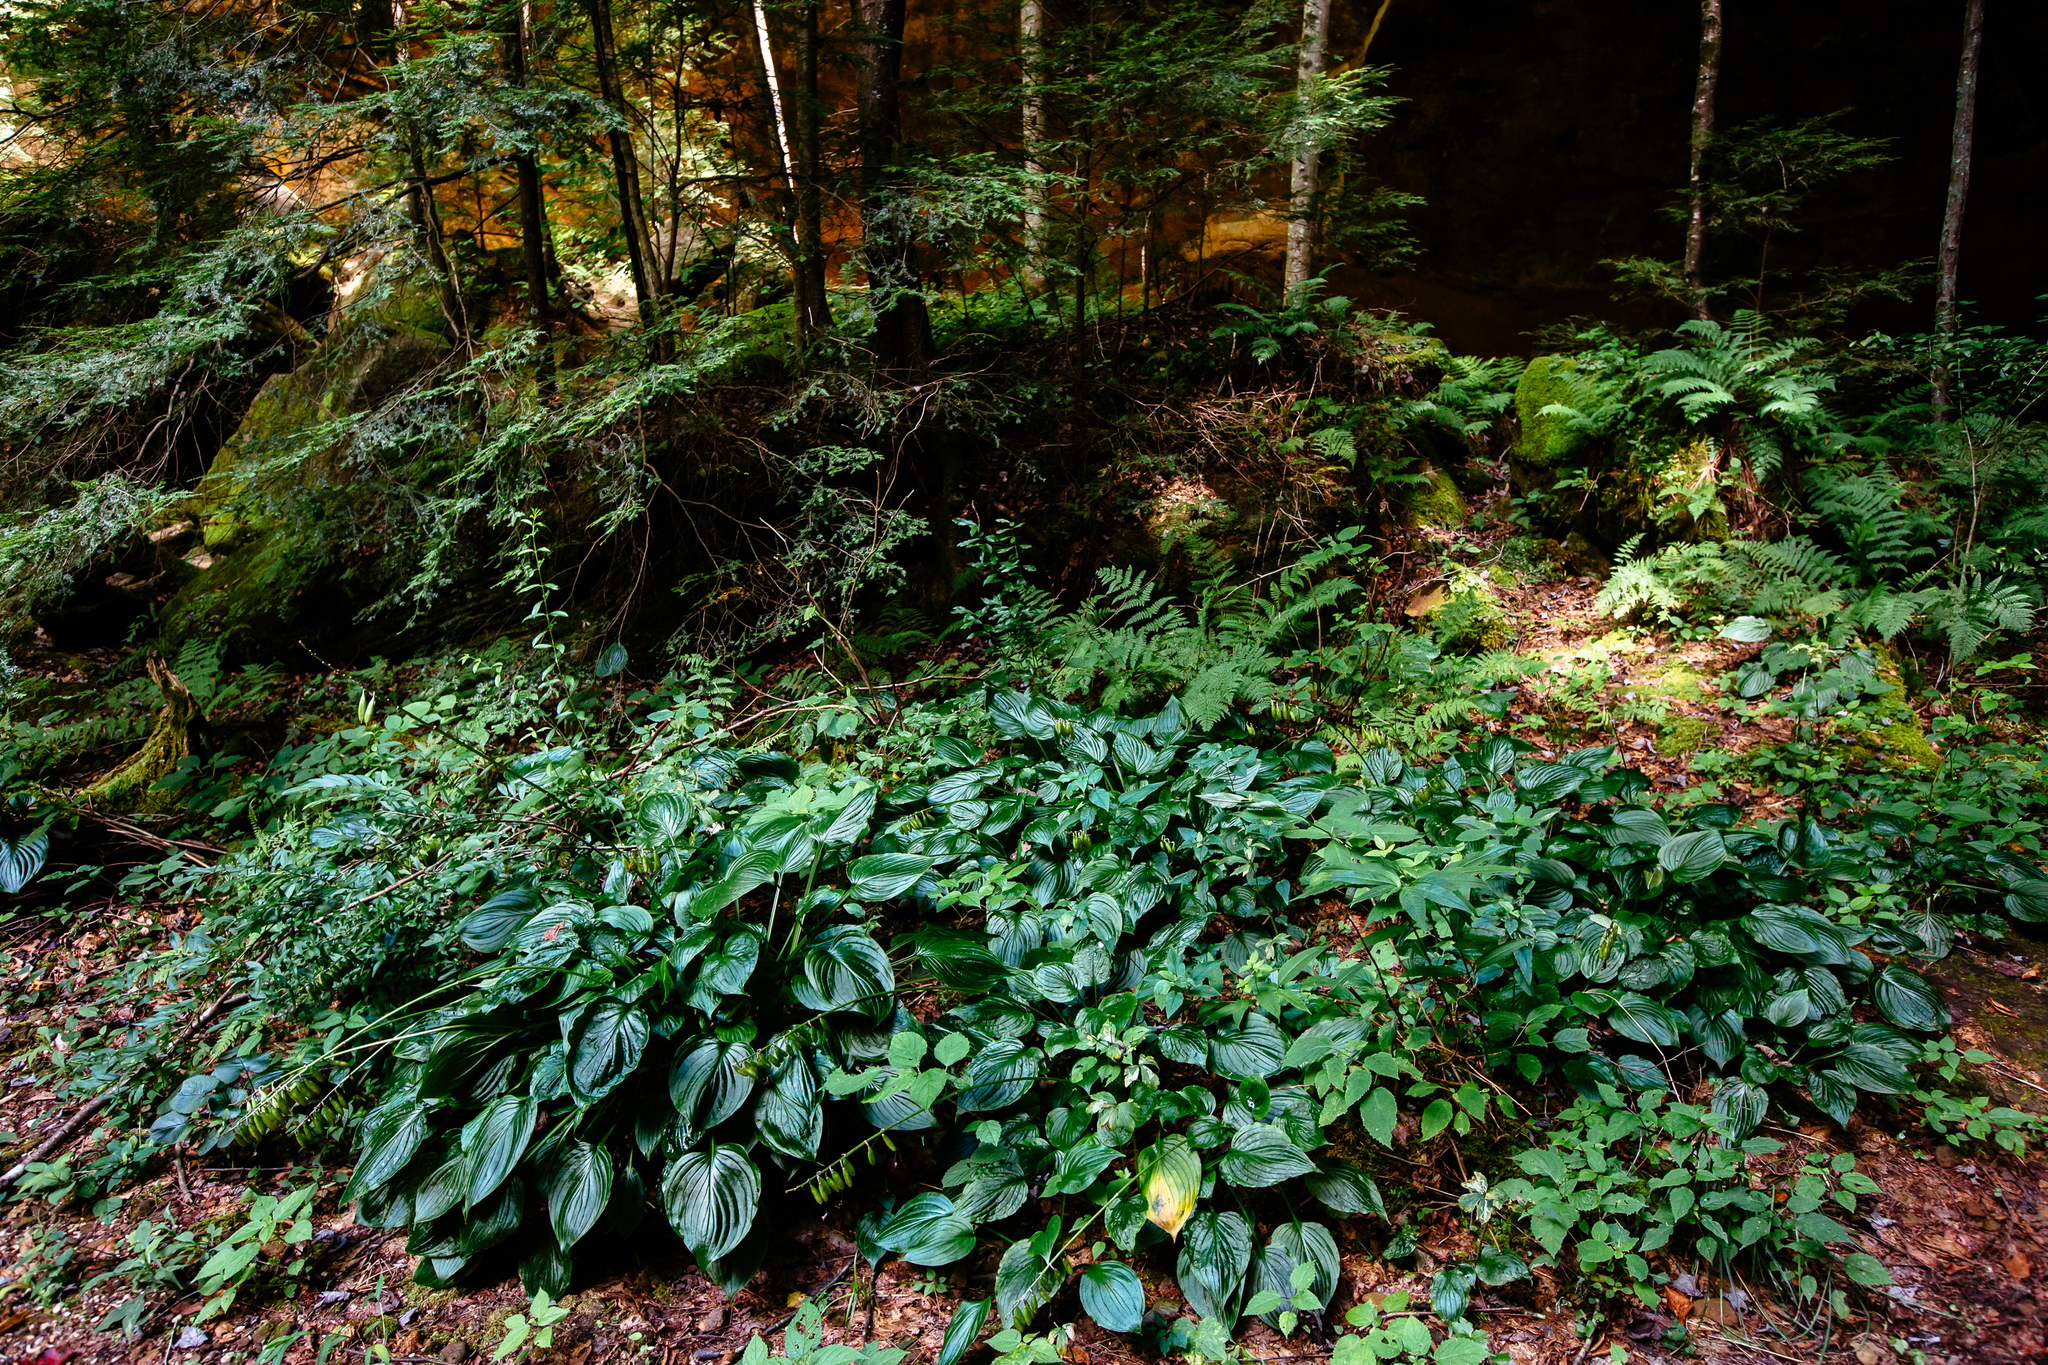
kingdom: Plantae
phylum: Tracheophyta
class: Liliopsida
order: Asparagales
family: Asparagaceae
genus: Hosta
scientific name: Hosta plantaginea
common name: August-lily
